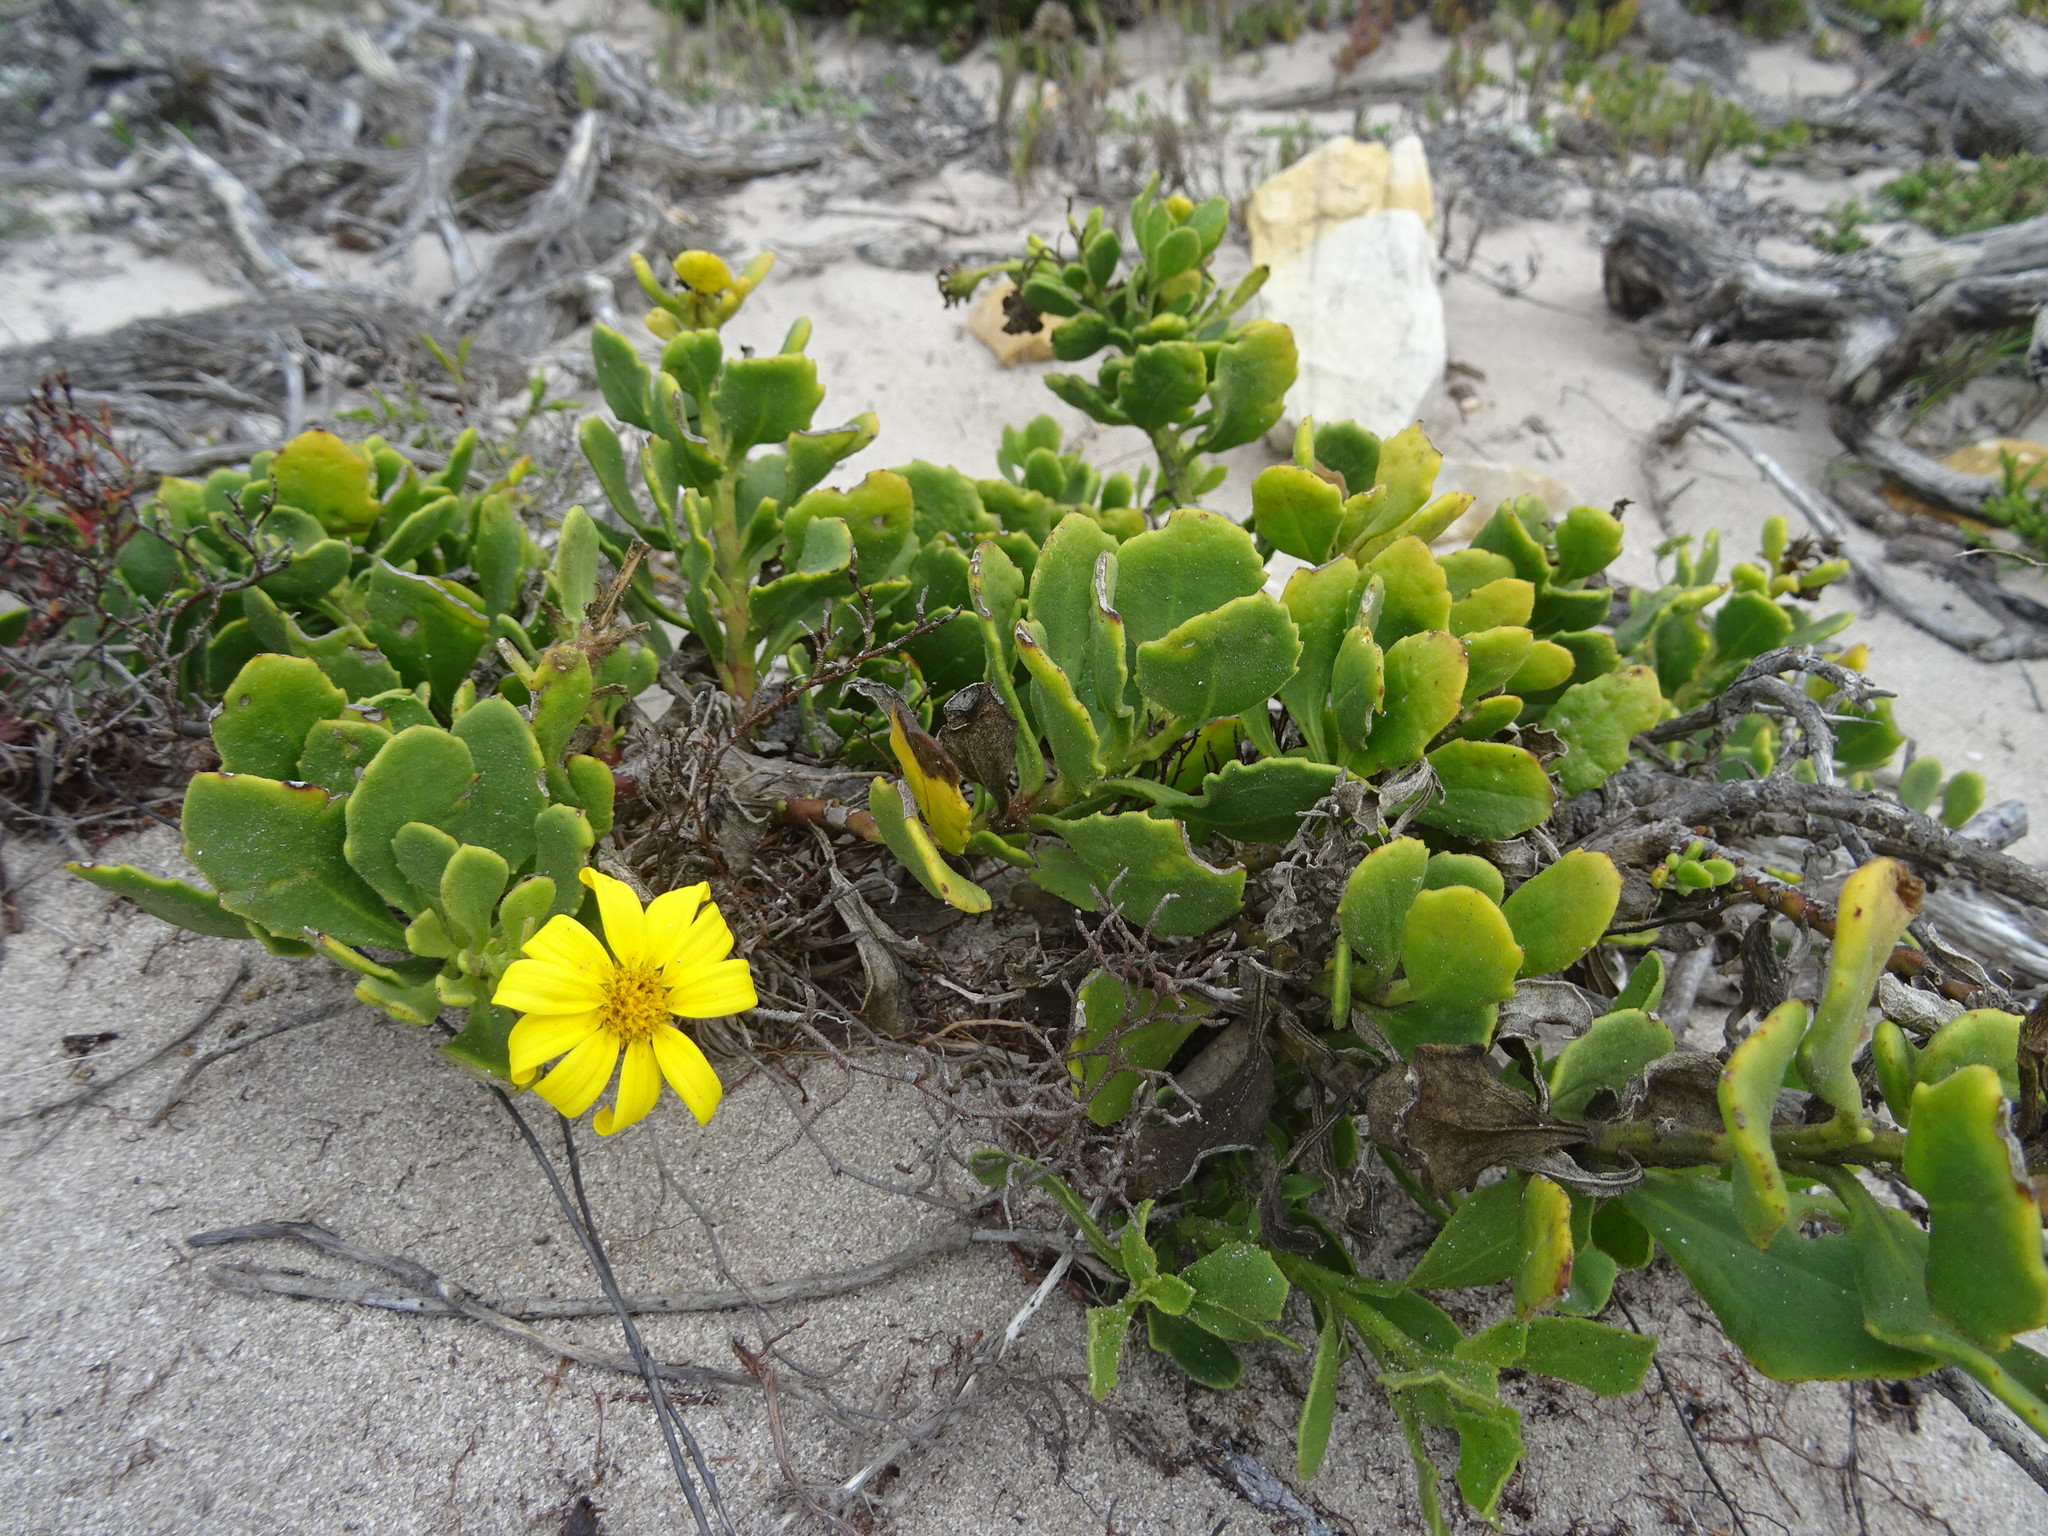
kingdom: Plantae
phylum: Tracheophyta
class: Magnoliopsida
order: Asterales
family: Asteraceae
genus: Osteospermum
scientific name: Osteospermum moniliferum
